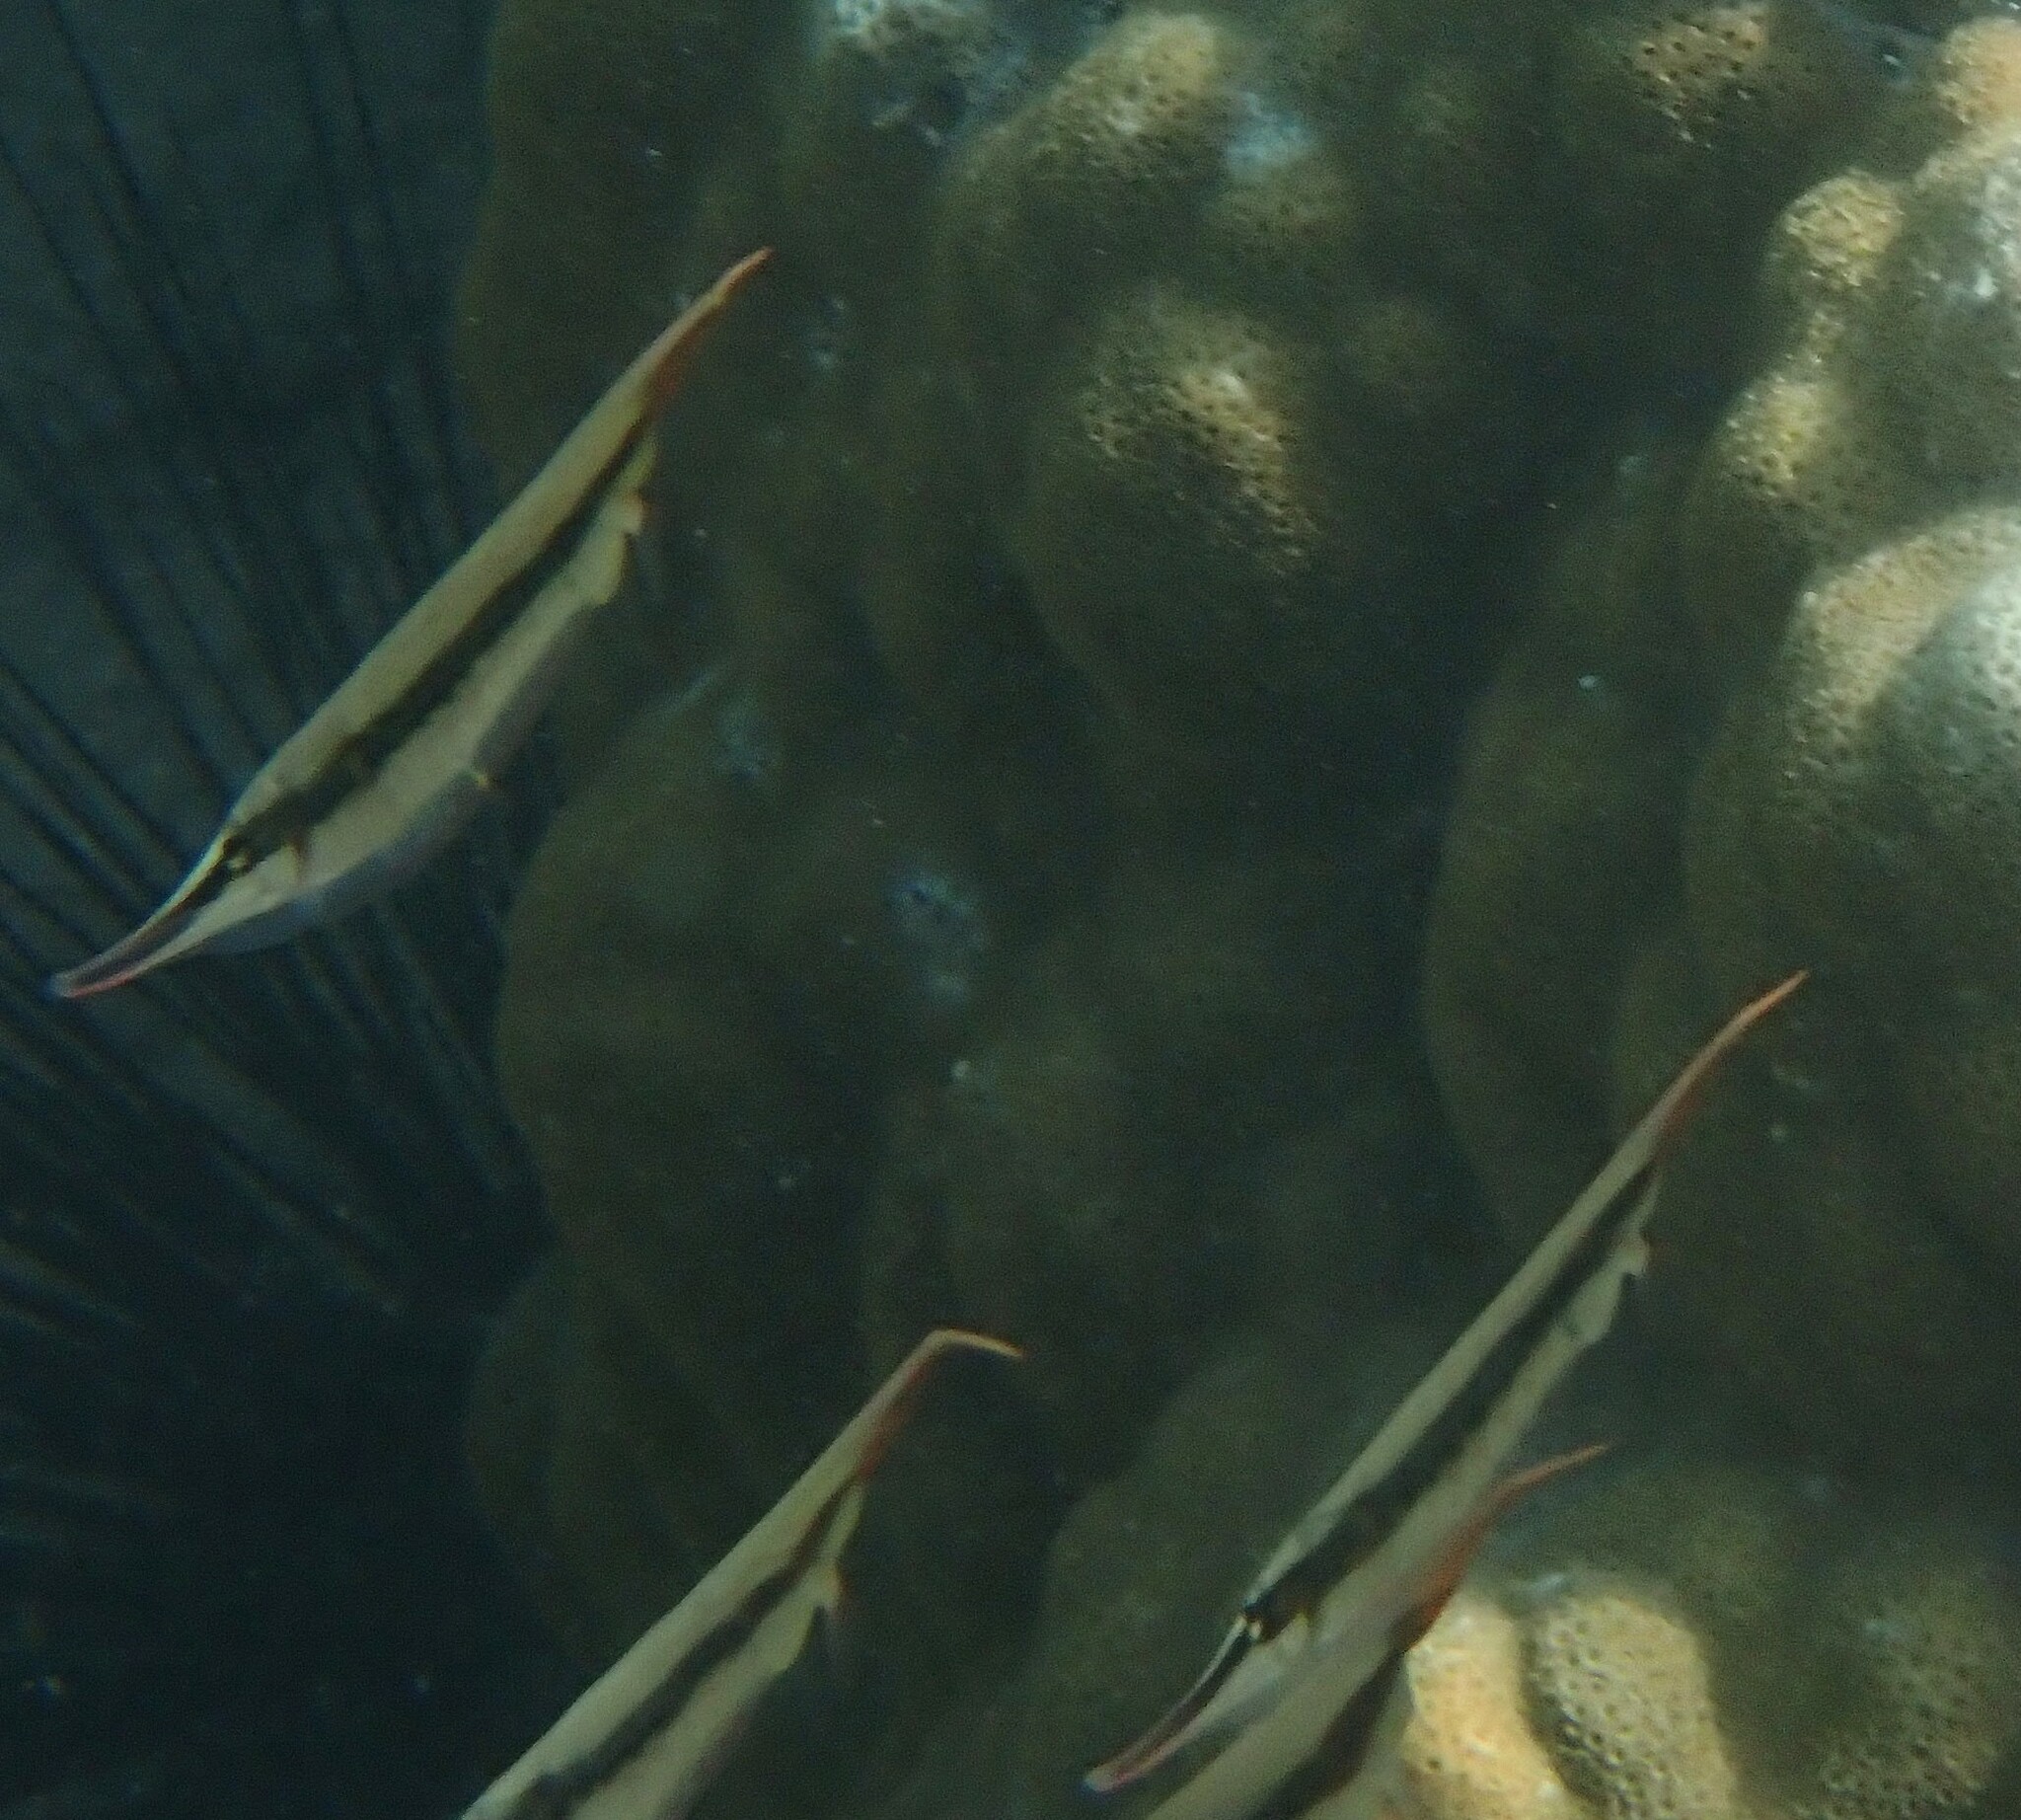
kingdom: Animalia
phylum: Chordata
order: Syngnathiformes
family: Centriscidae
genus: Aeoliscus
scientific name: Aeoliscus strigatus
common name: Canif
